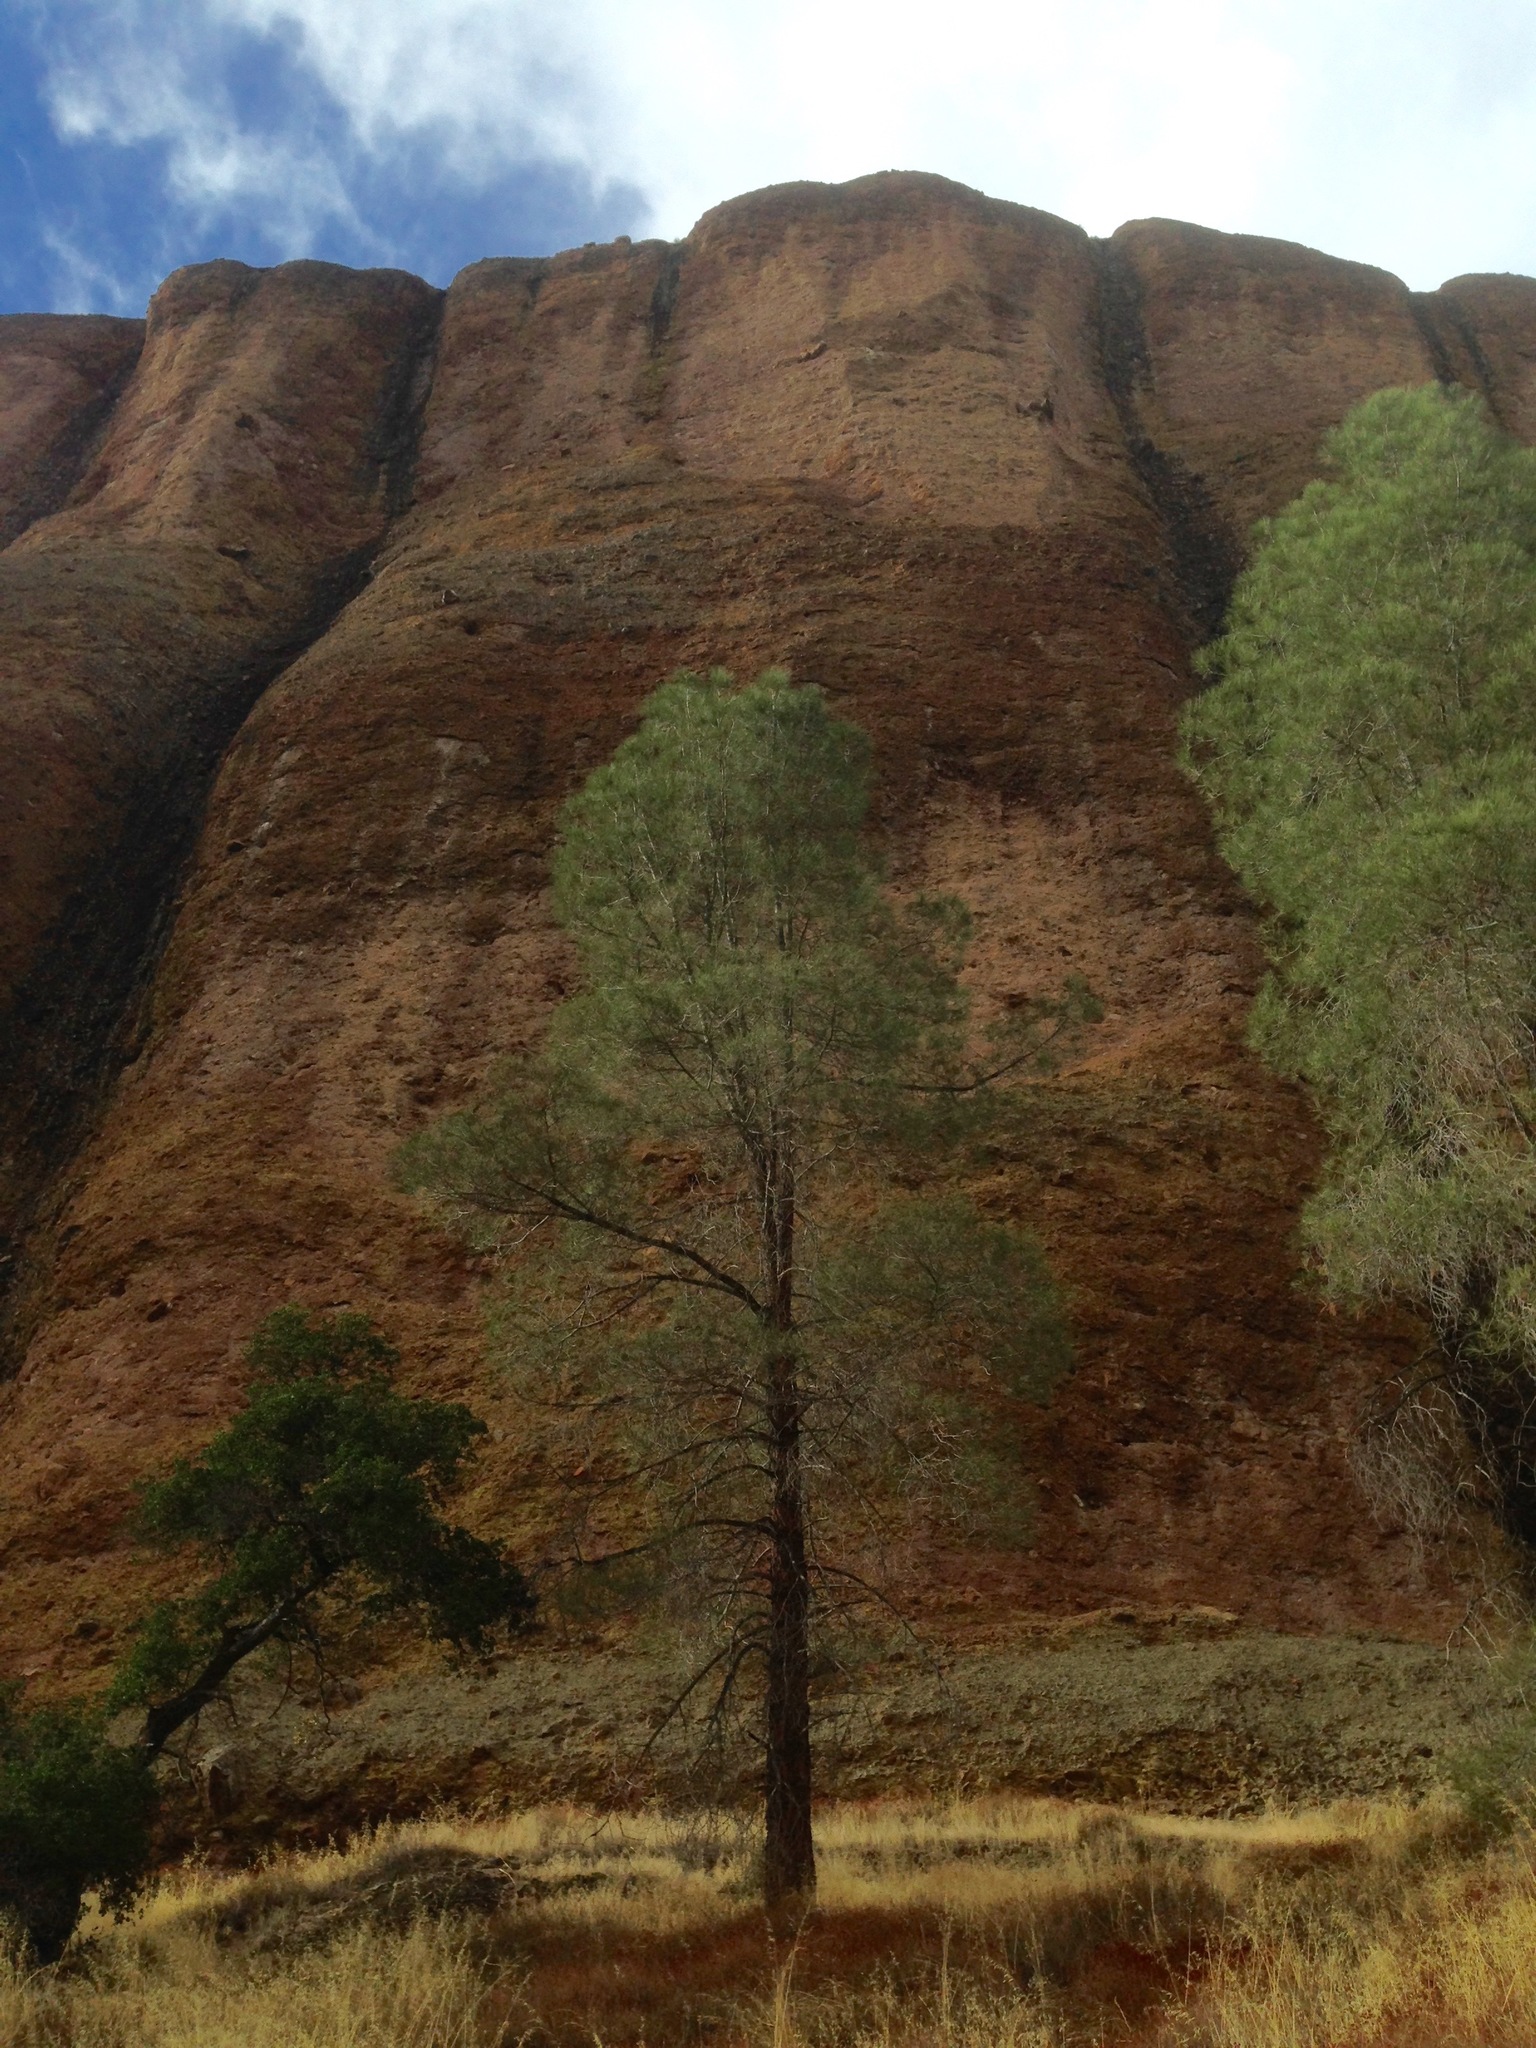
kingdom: Plantae
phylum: Tracheophyta
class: Pinopsida
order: Pinales
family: Pinaceae
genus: Pinus
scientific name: Pinus sabiniana
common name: Bull pine
